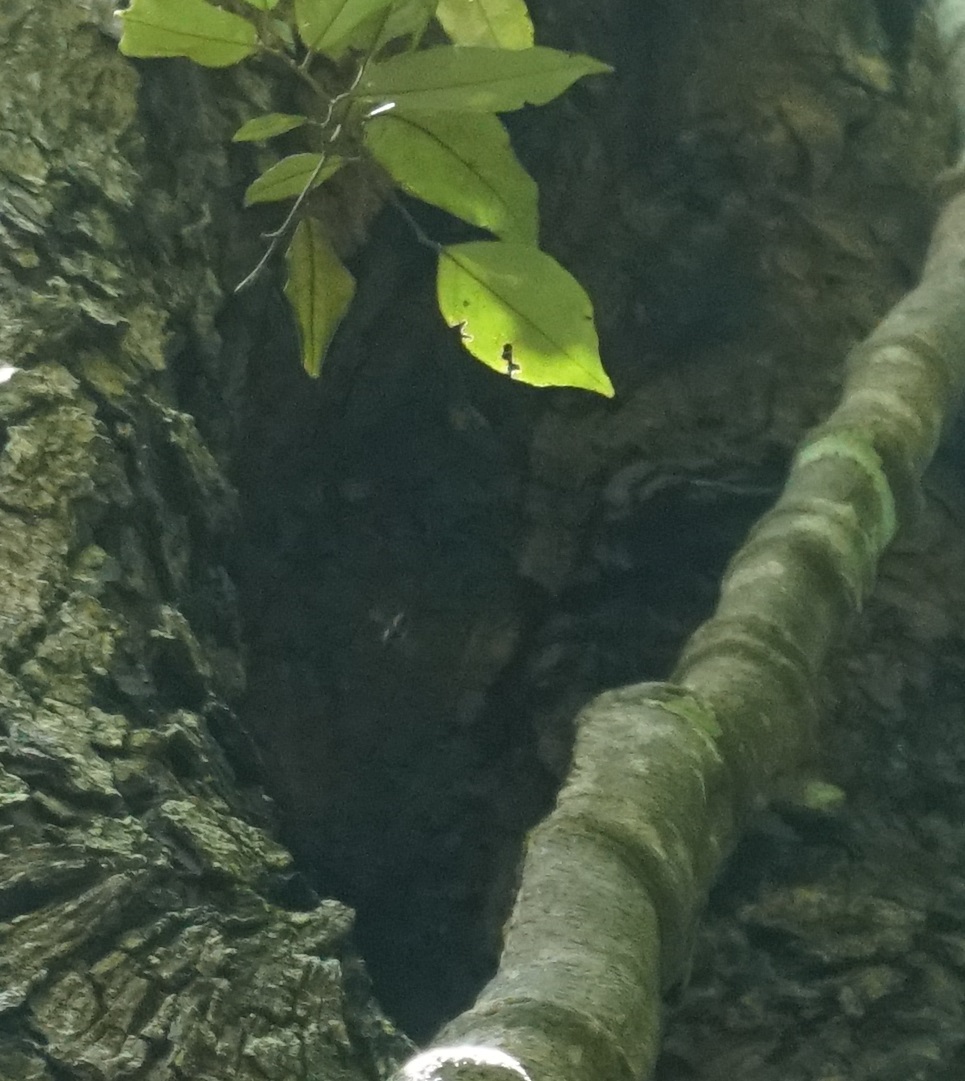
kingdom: Animalia
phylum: Arthropoda
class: Insecta
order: Hymenoptera
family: Apidae
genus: Apis
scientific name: Apis mellifera
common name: Honey bee
